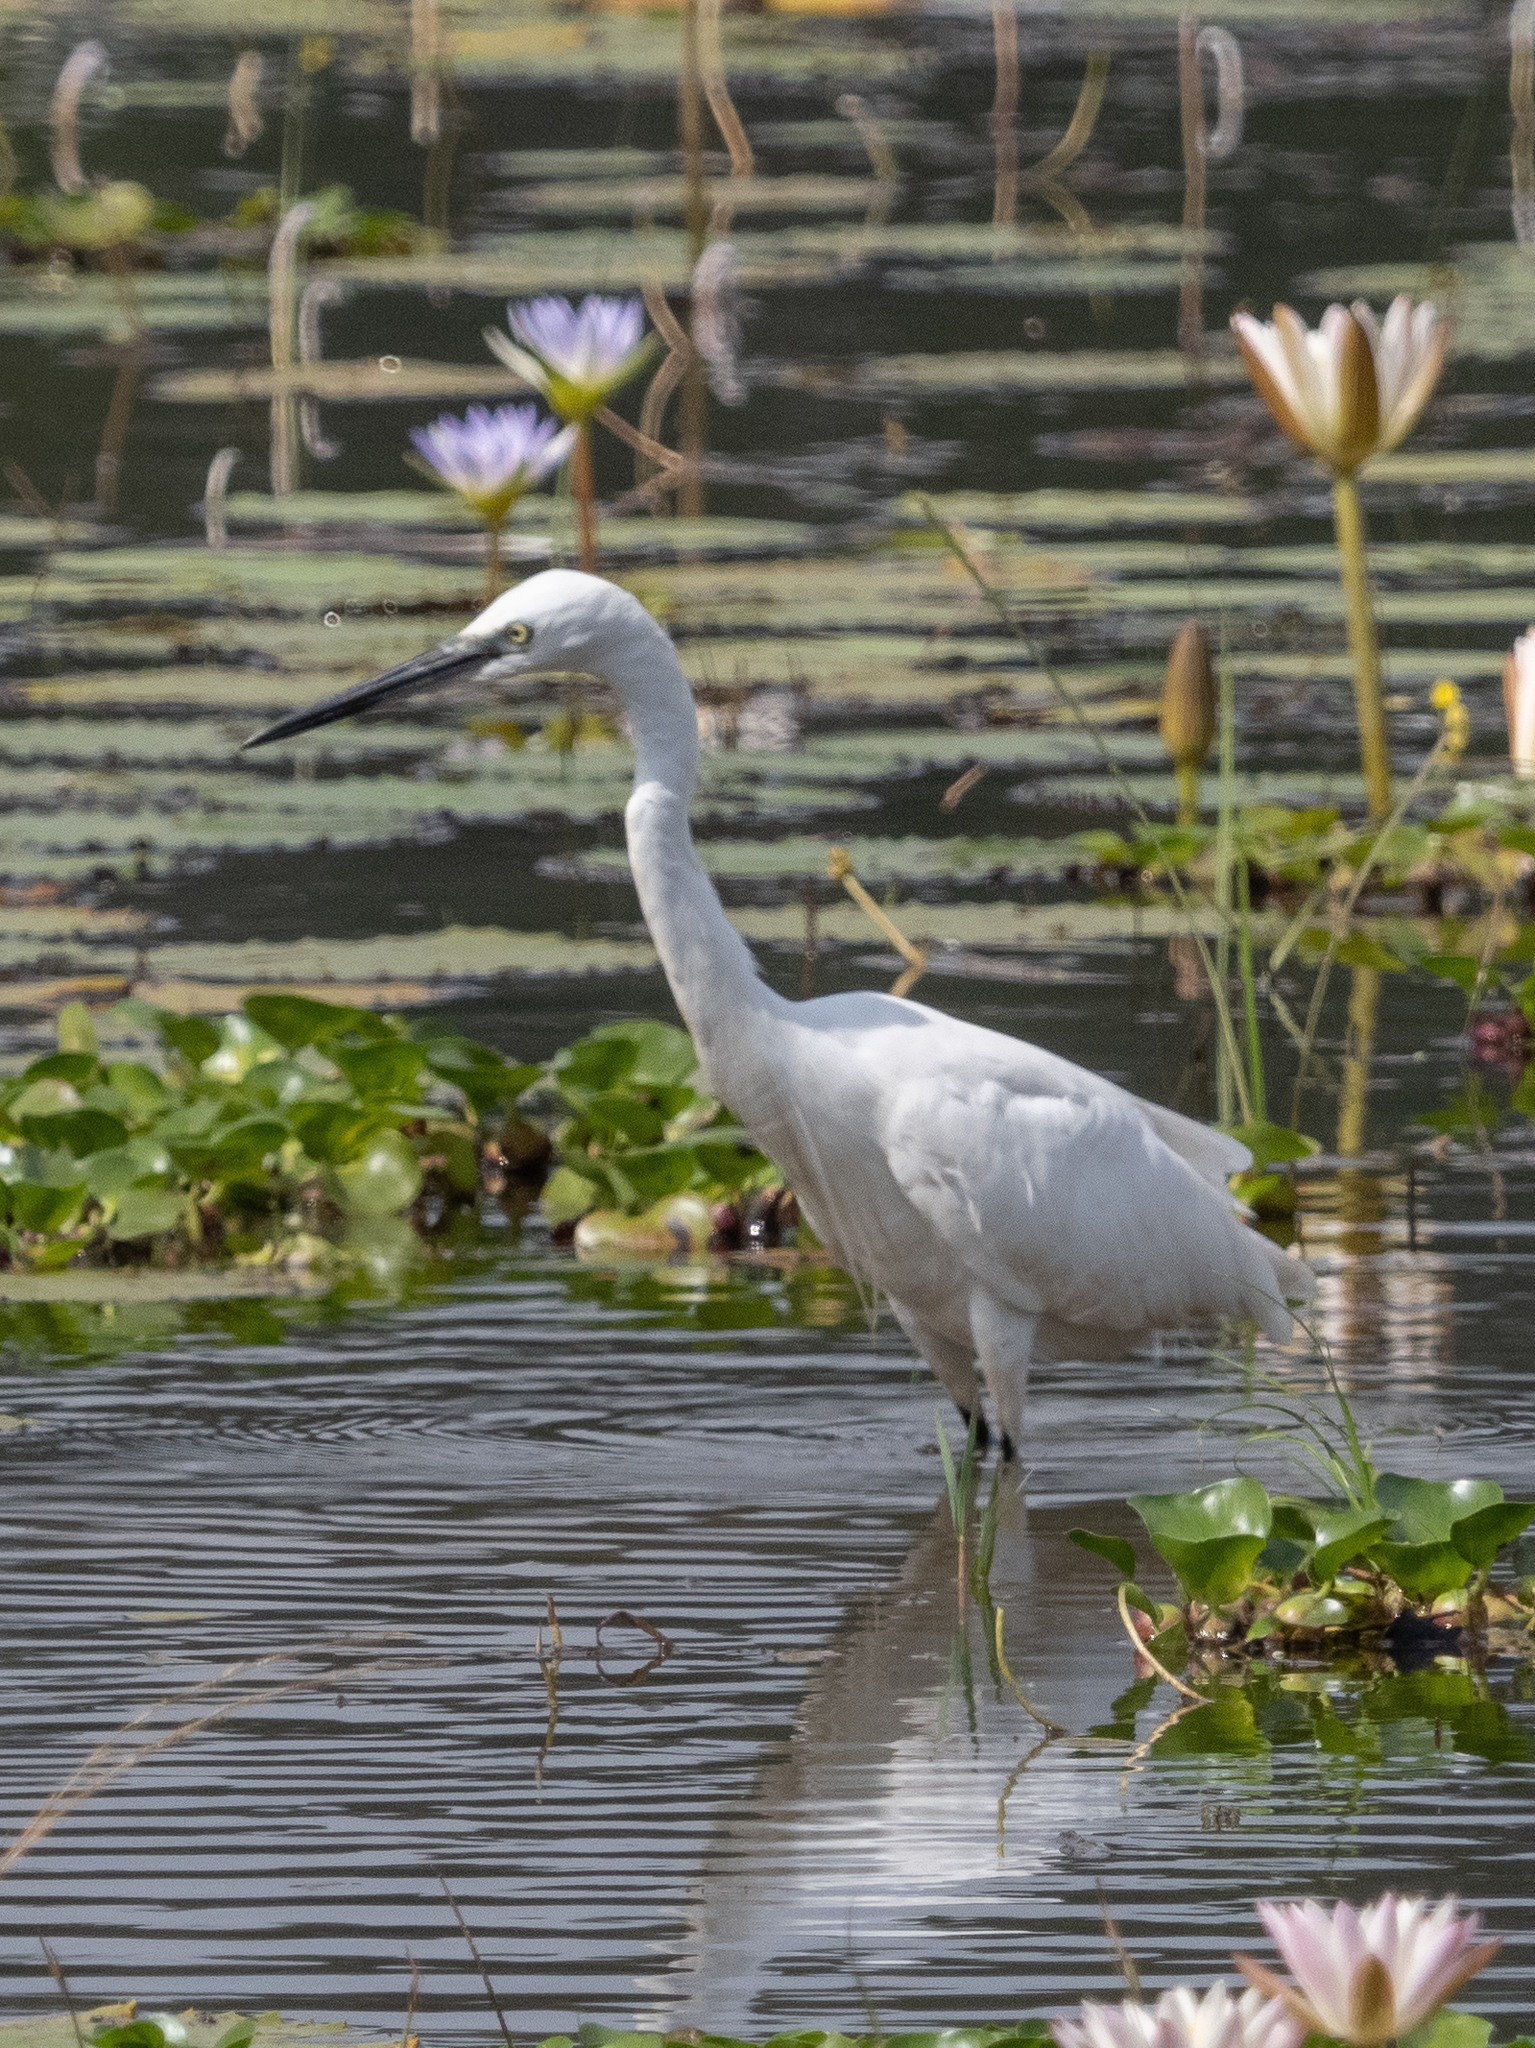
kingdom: Animalia
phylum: Chordata
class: Aves
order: Pelecaniformes
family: Ardeidae
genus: Egretta
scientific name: Egretta garzetta
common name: Little egret
